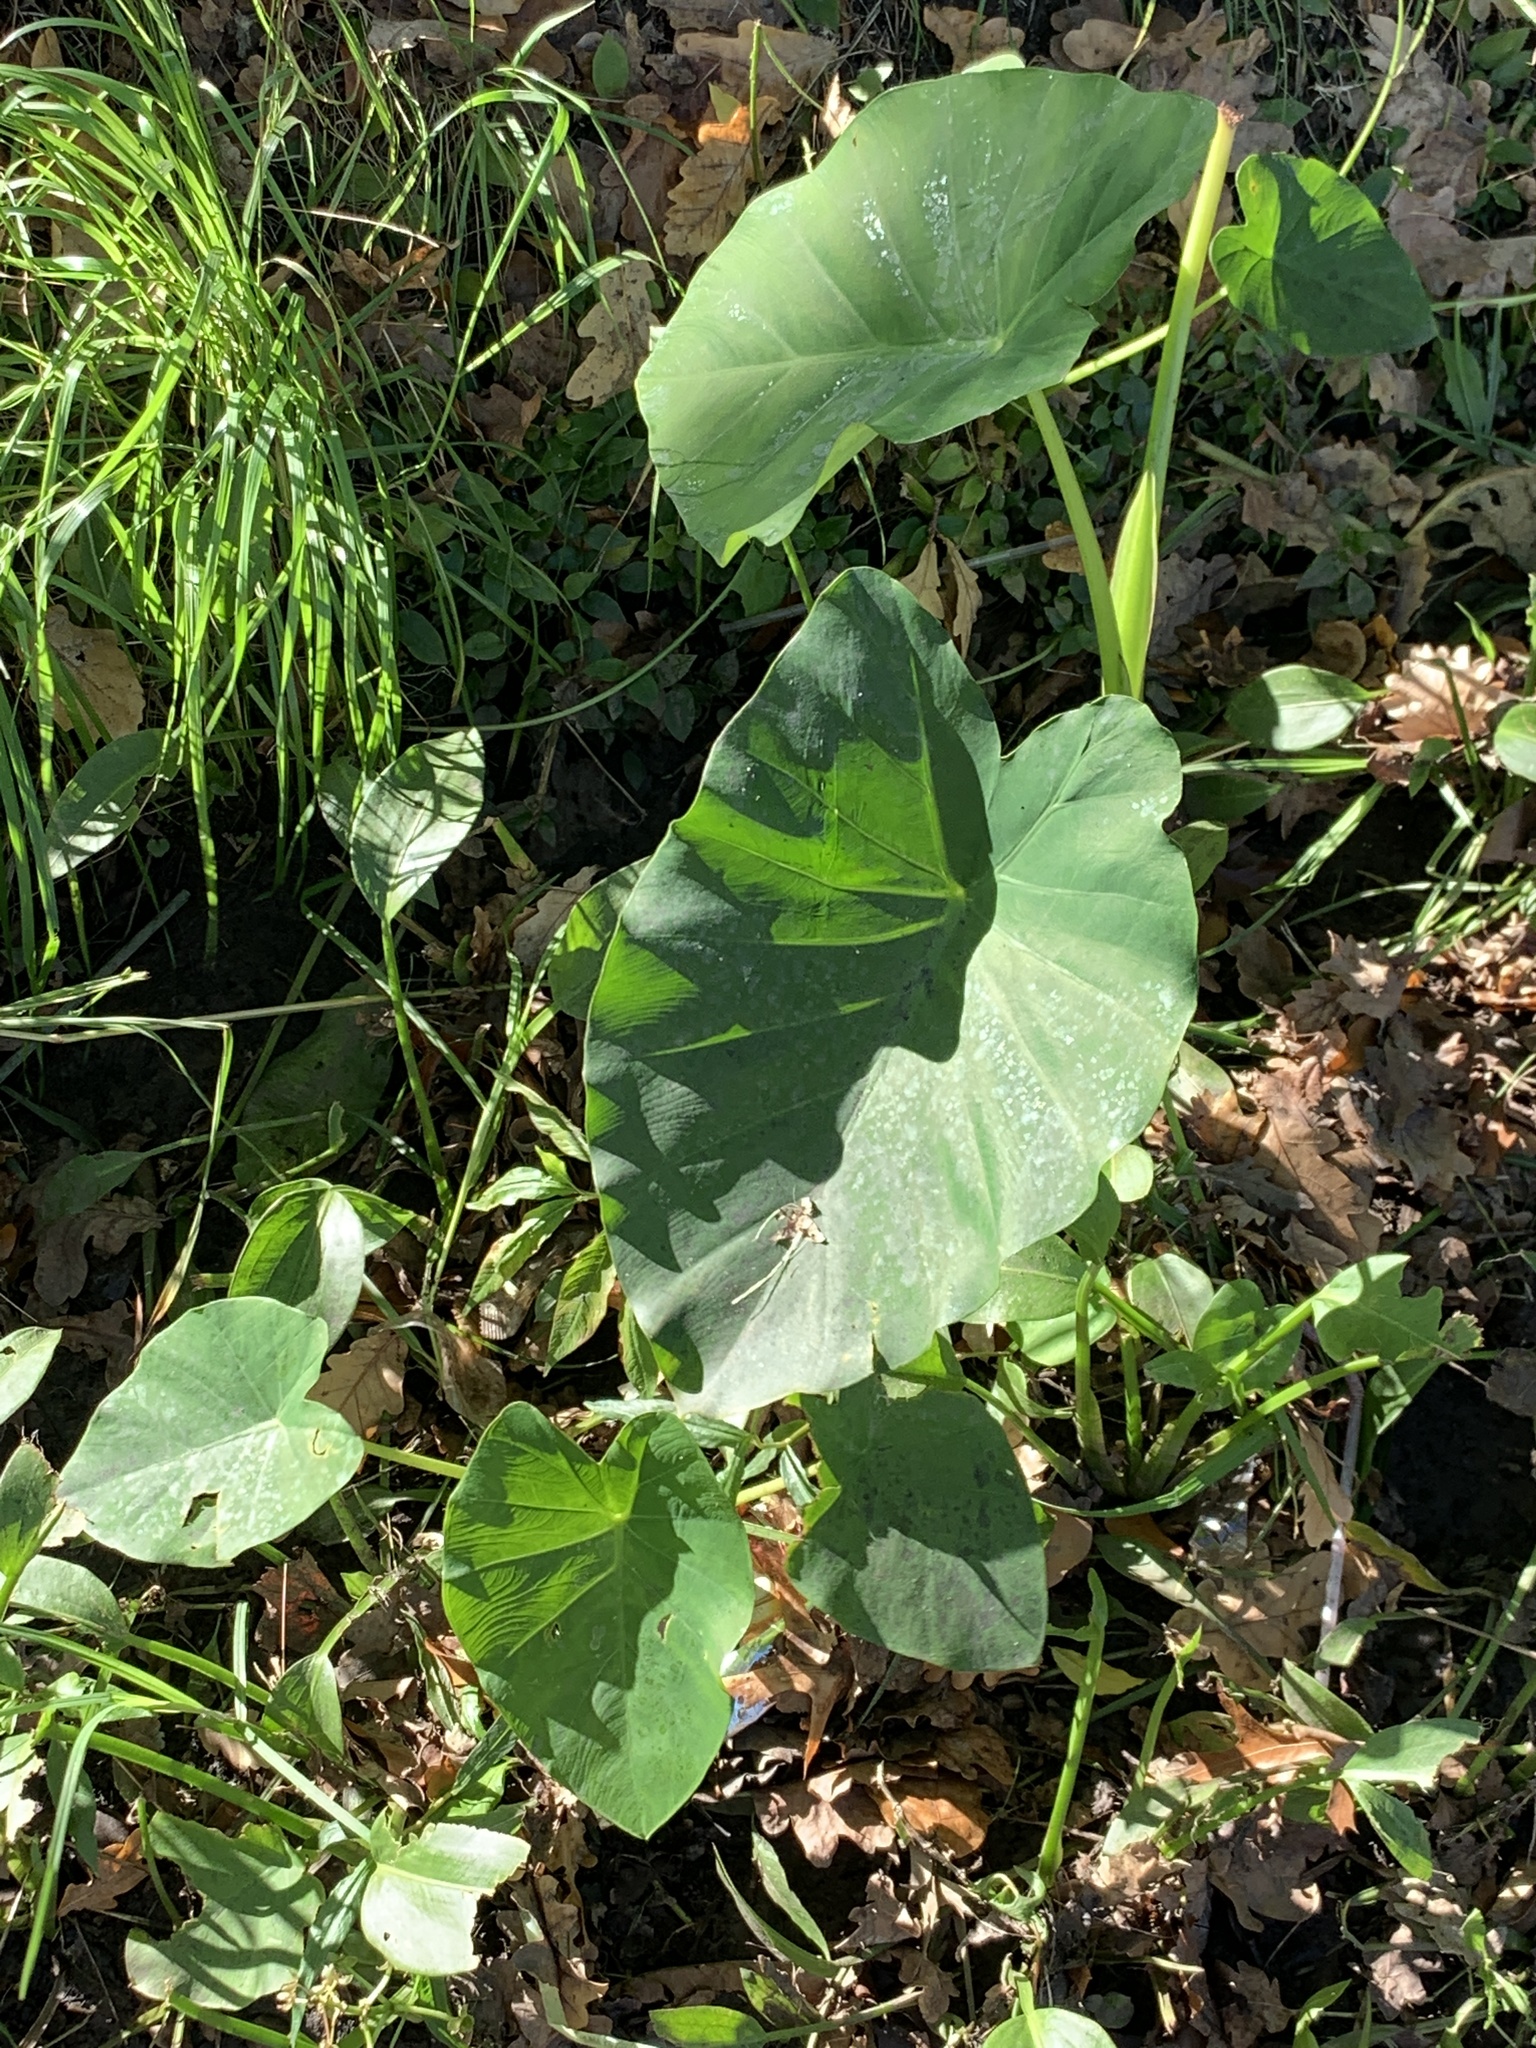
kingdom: Plantae
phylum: Tracheophyta
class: Liliopsida
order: Alismatales
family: Araceae
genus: Colocasia
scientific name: Colocasia esculenta
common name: Taro
